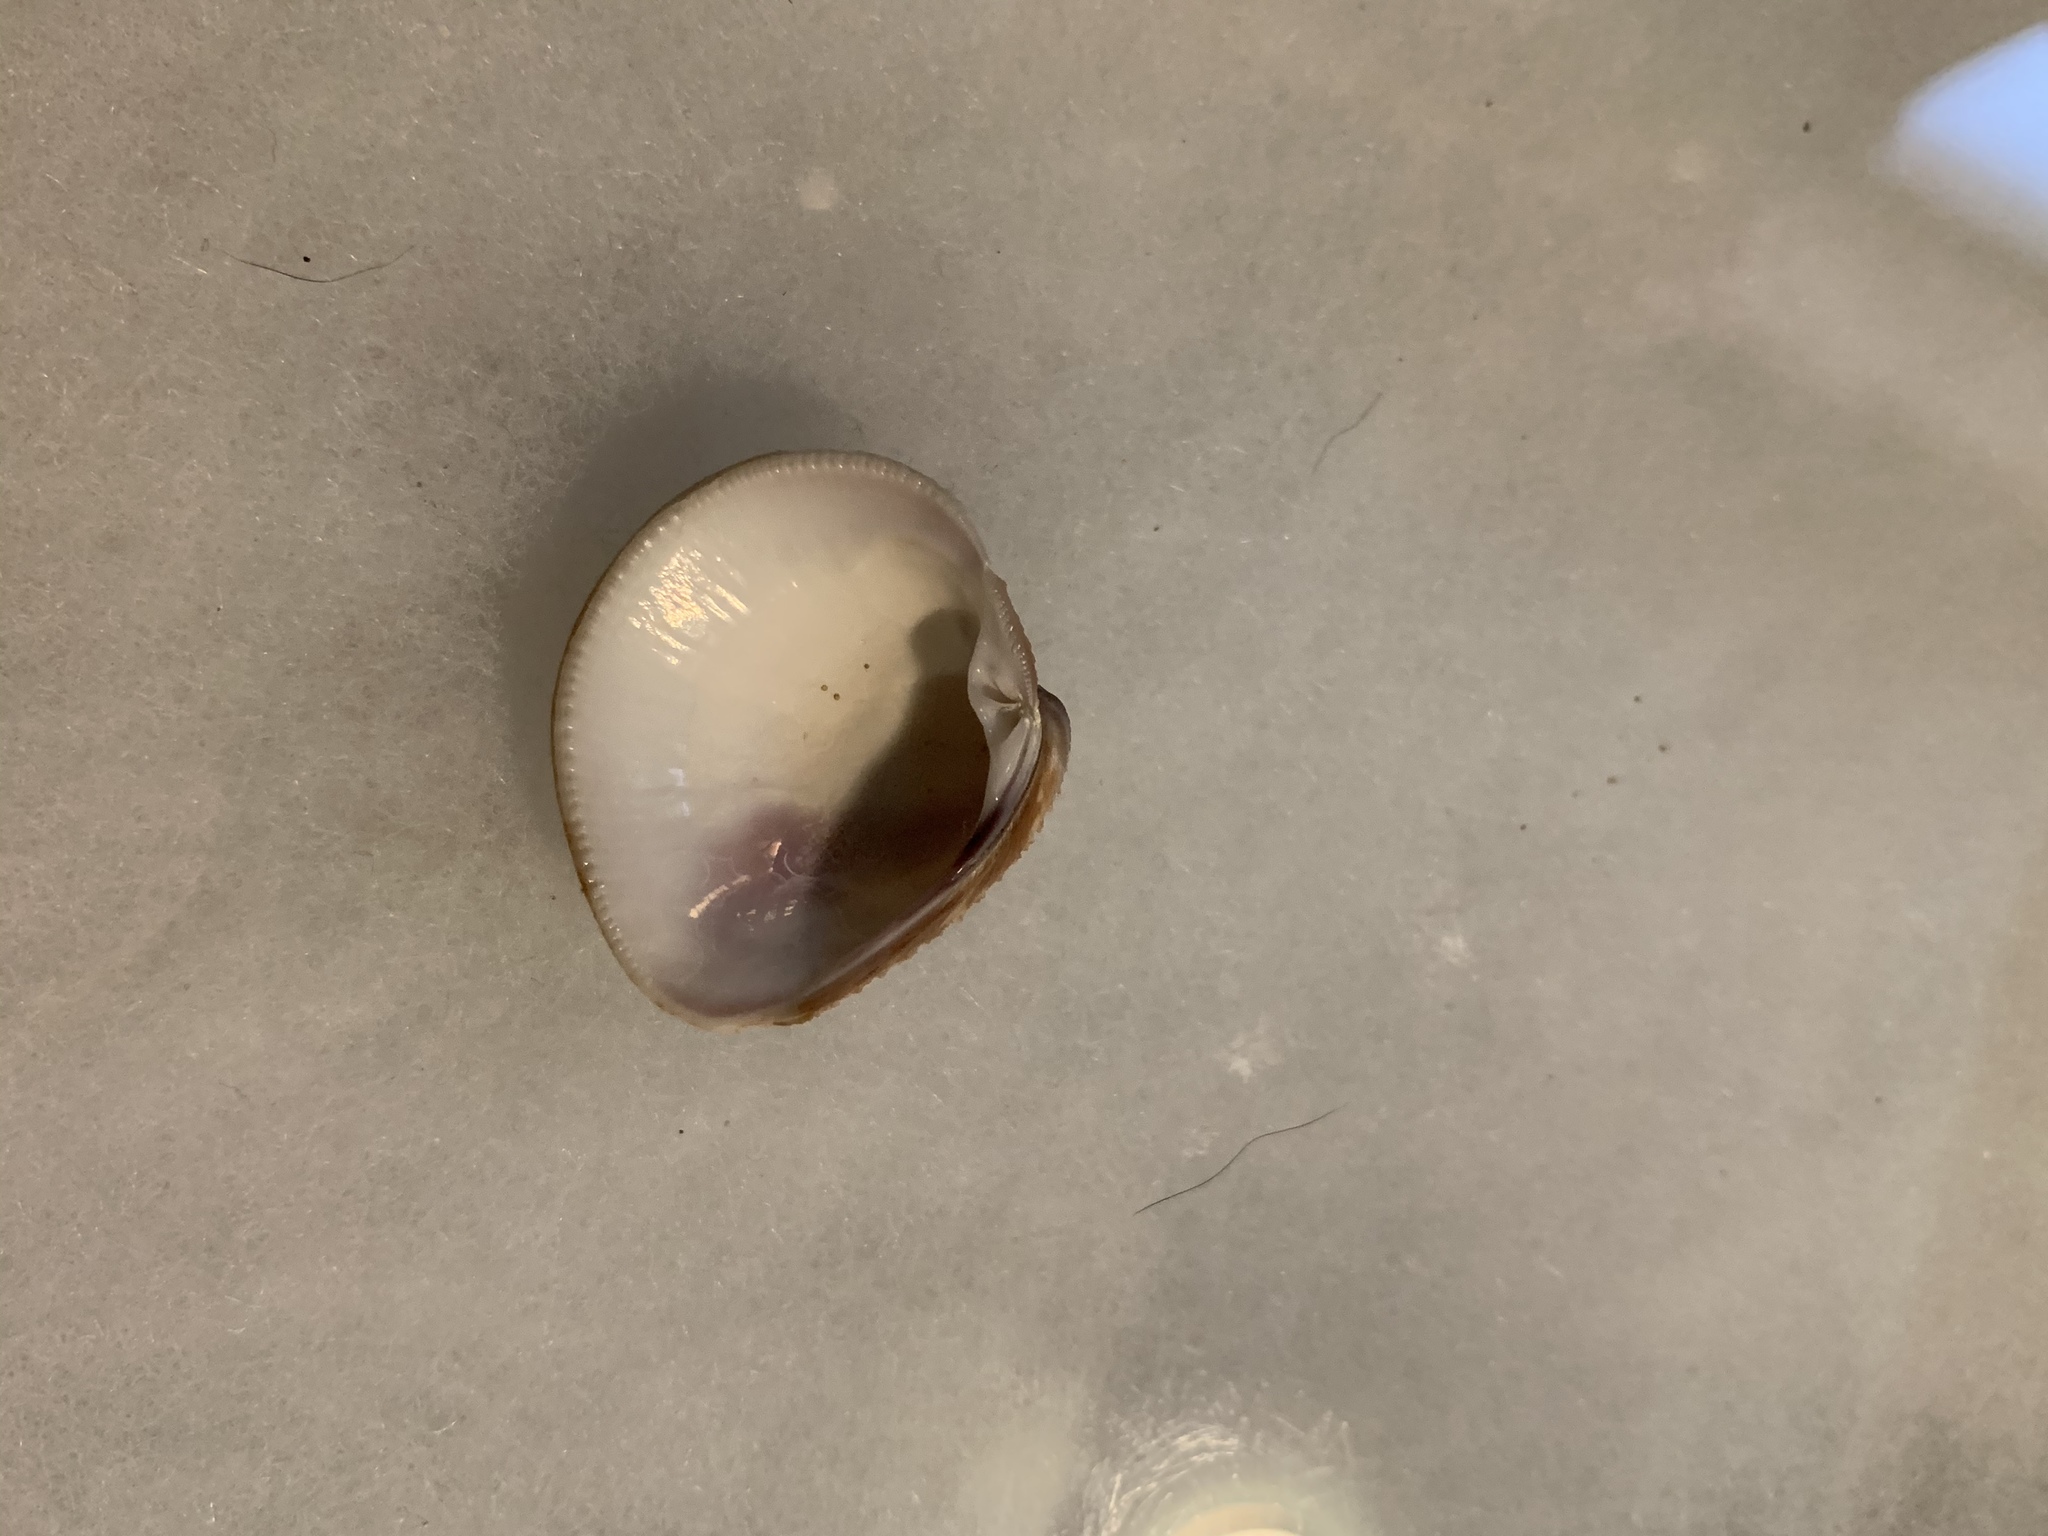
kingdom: Animalia
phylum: Mollusca
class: Bivalvia
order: Venerida
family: Veneridae
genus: Chionopsis
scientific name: Chionopsis intapurpurea
